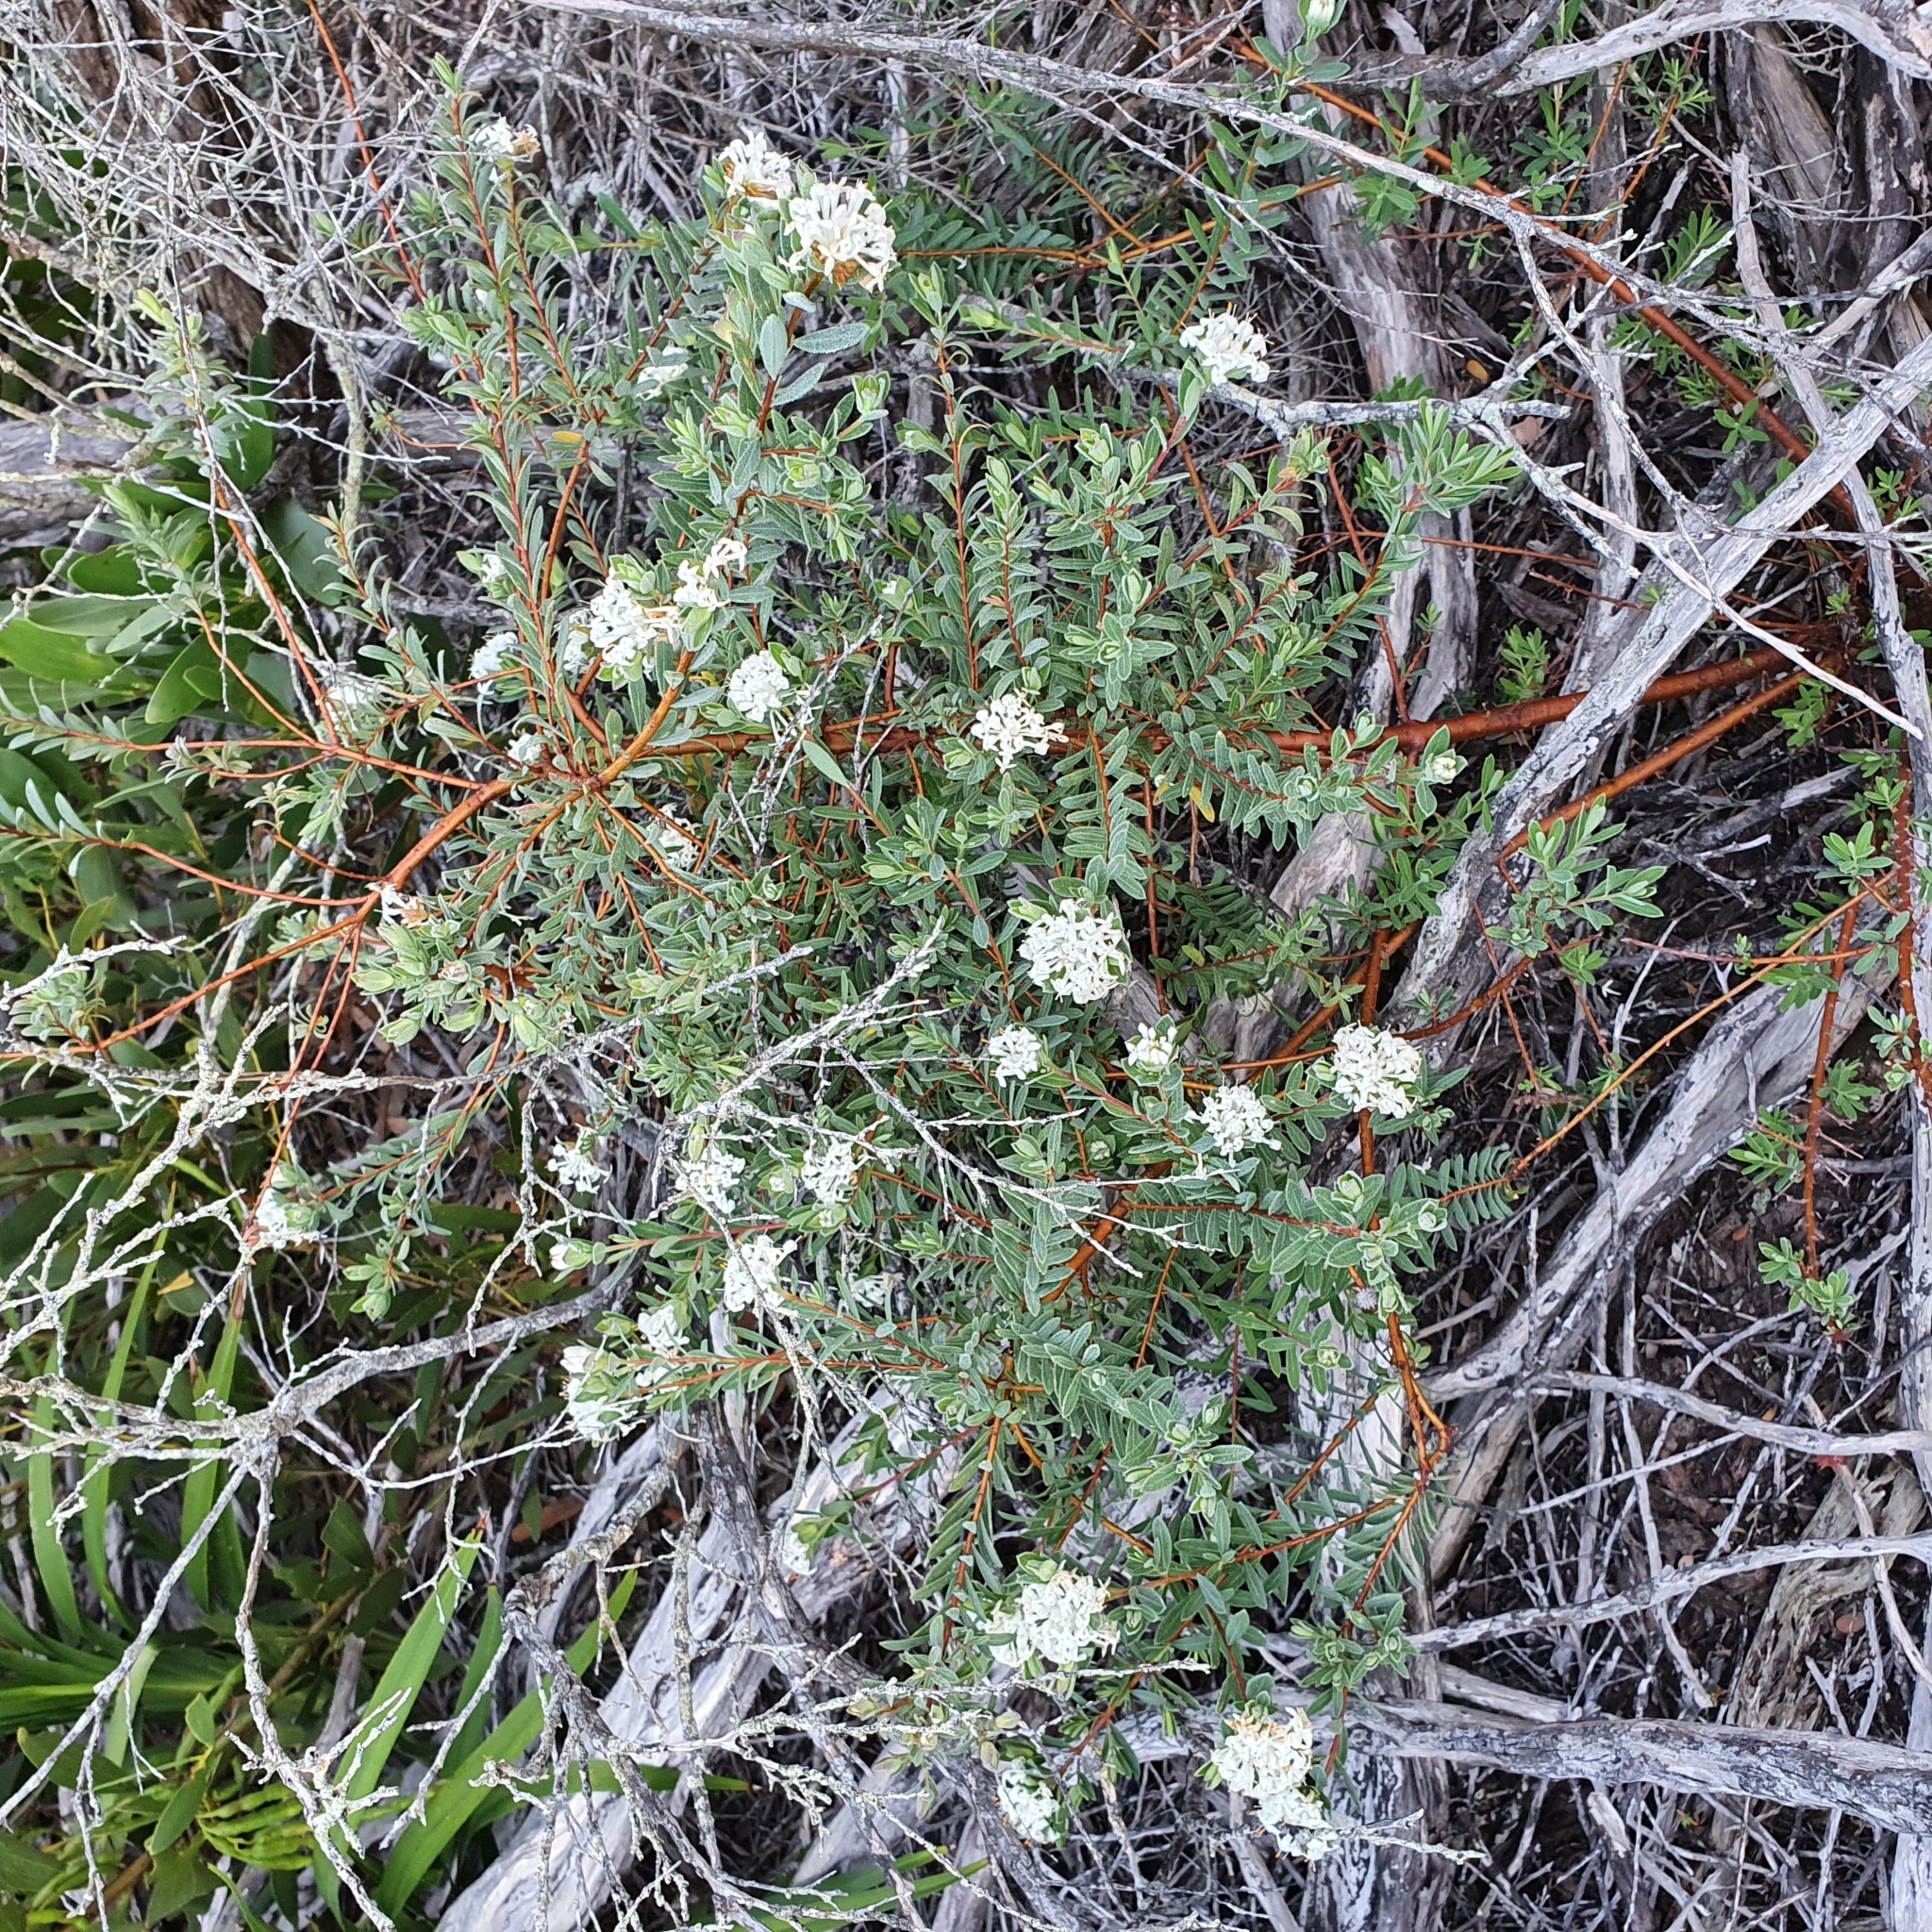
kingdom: Plantae
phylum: Tracheophyta
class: Magnoliopsida
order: Malvales
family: Thymelaeaceae
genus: Pimelea
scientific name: Pimelea linifolia
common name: Queen-of-the-bush
